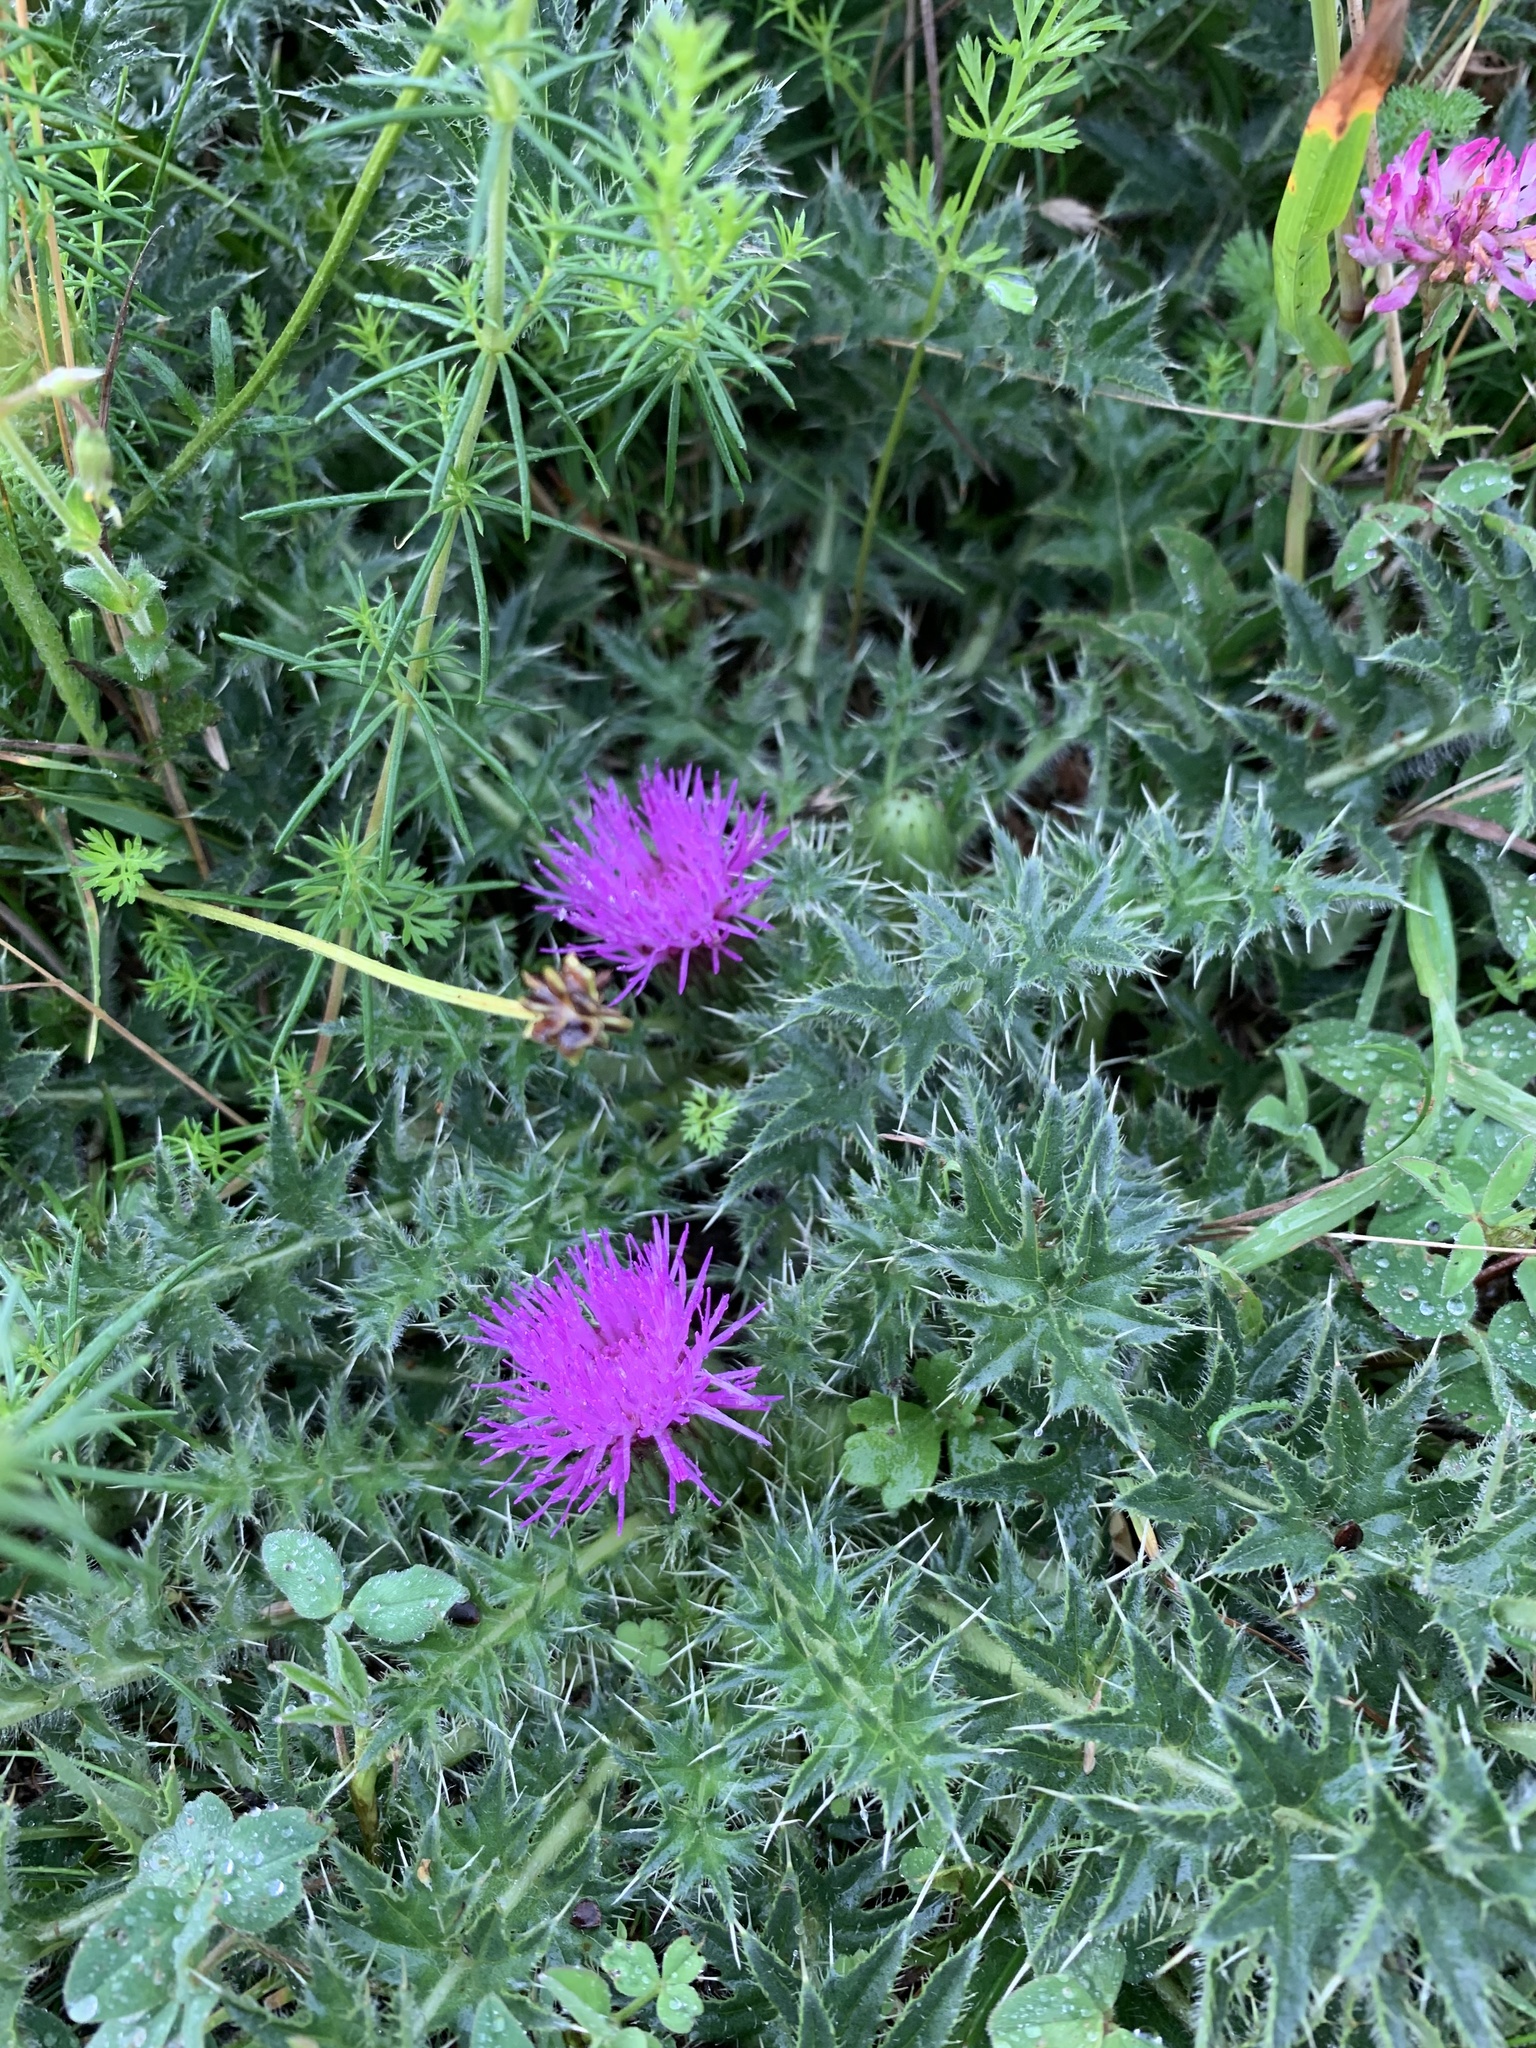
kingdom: Plantae
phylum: Tracheophyta
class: Magnoliopsida
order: Asterales
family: Asteraceae
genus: Cirsium
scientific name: Cirsium acaulon
